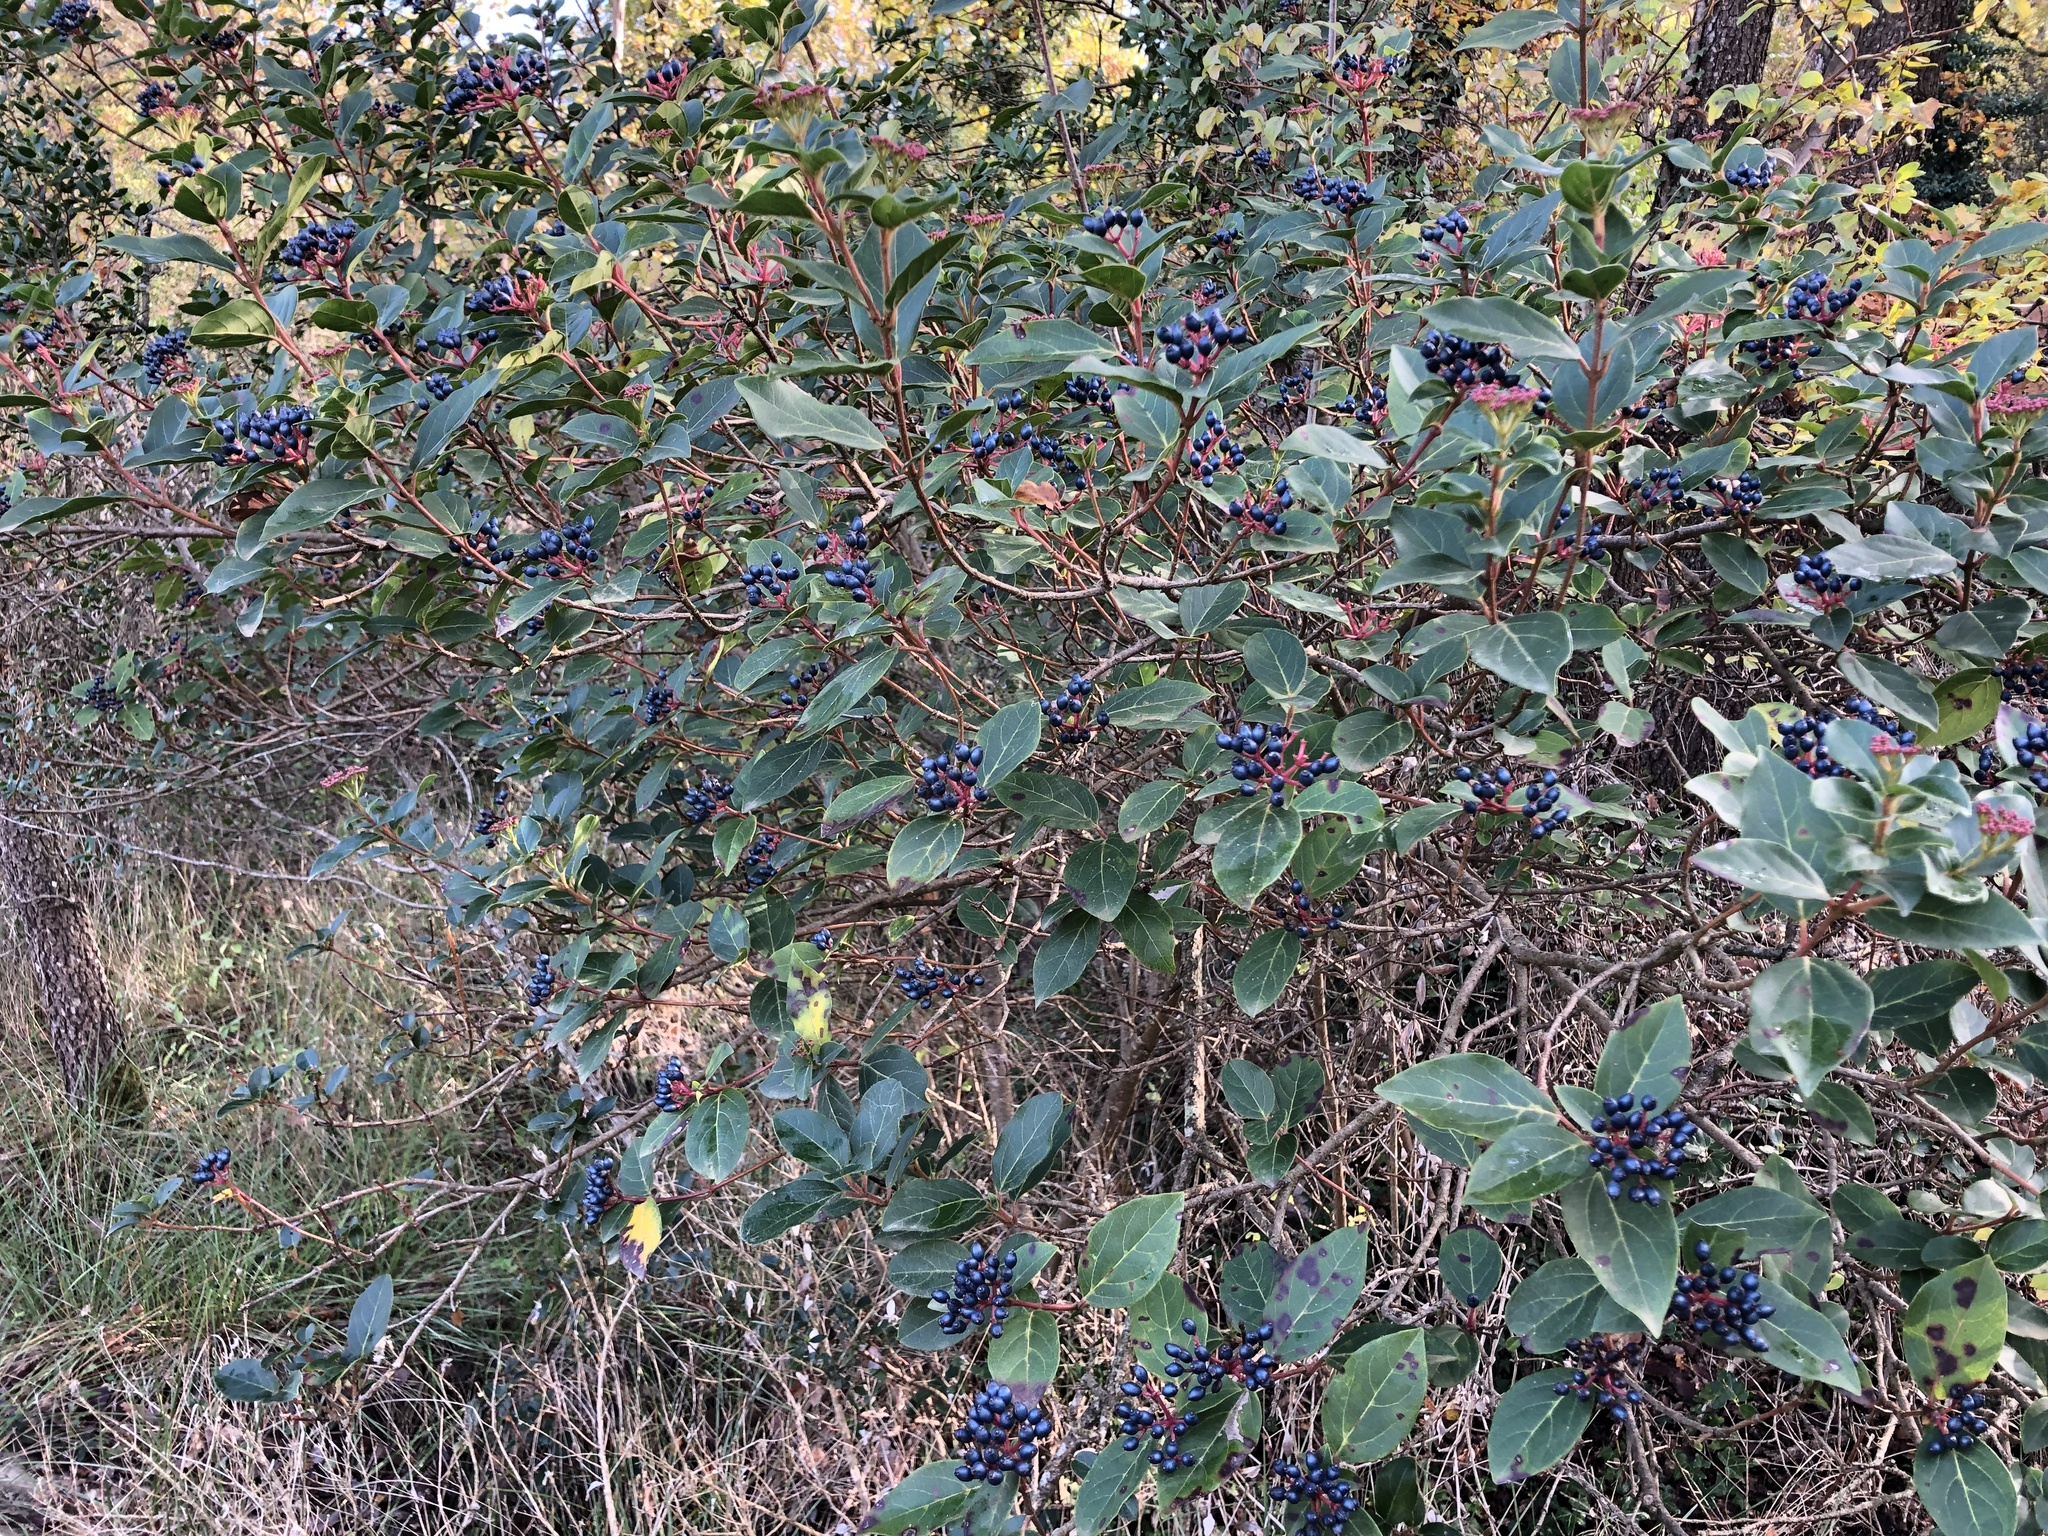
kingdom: Plantae
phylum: Tracheophyta
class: Magnoliopsida
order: Dipsacales
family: Viburnaceae
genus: Viburnum
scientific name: Viburnum tinus
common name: Laurustinus
